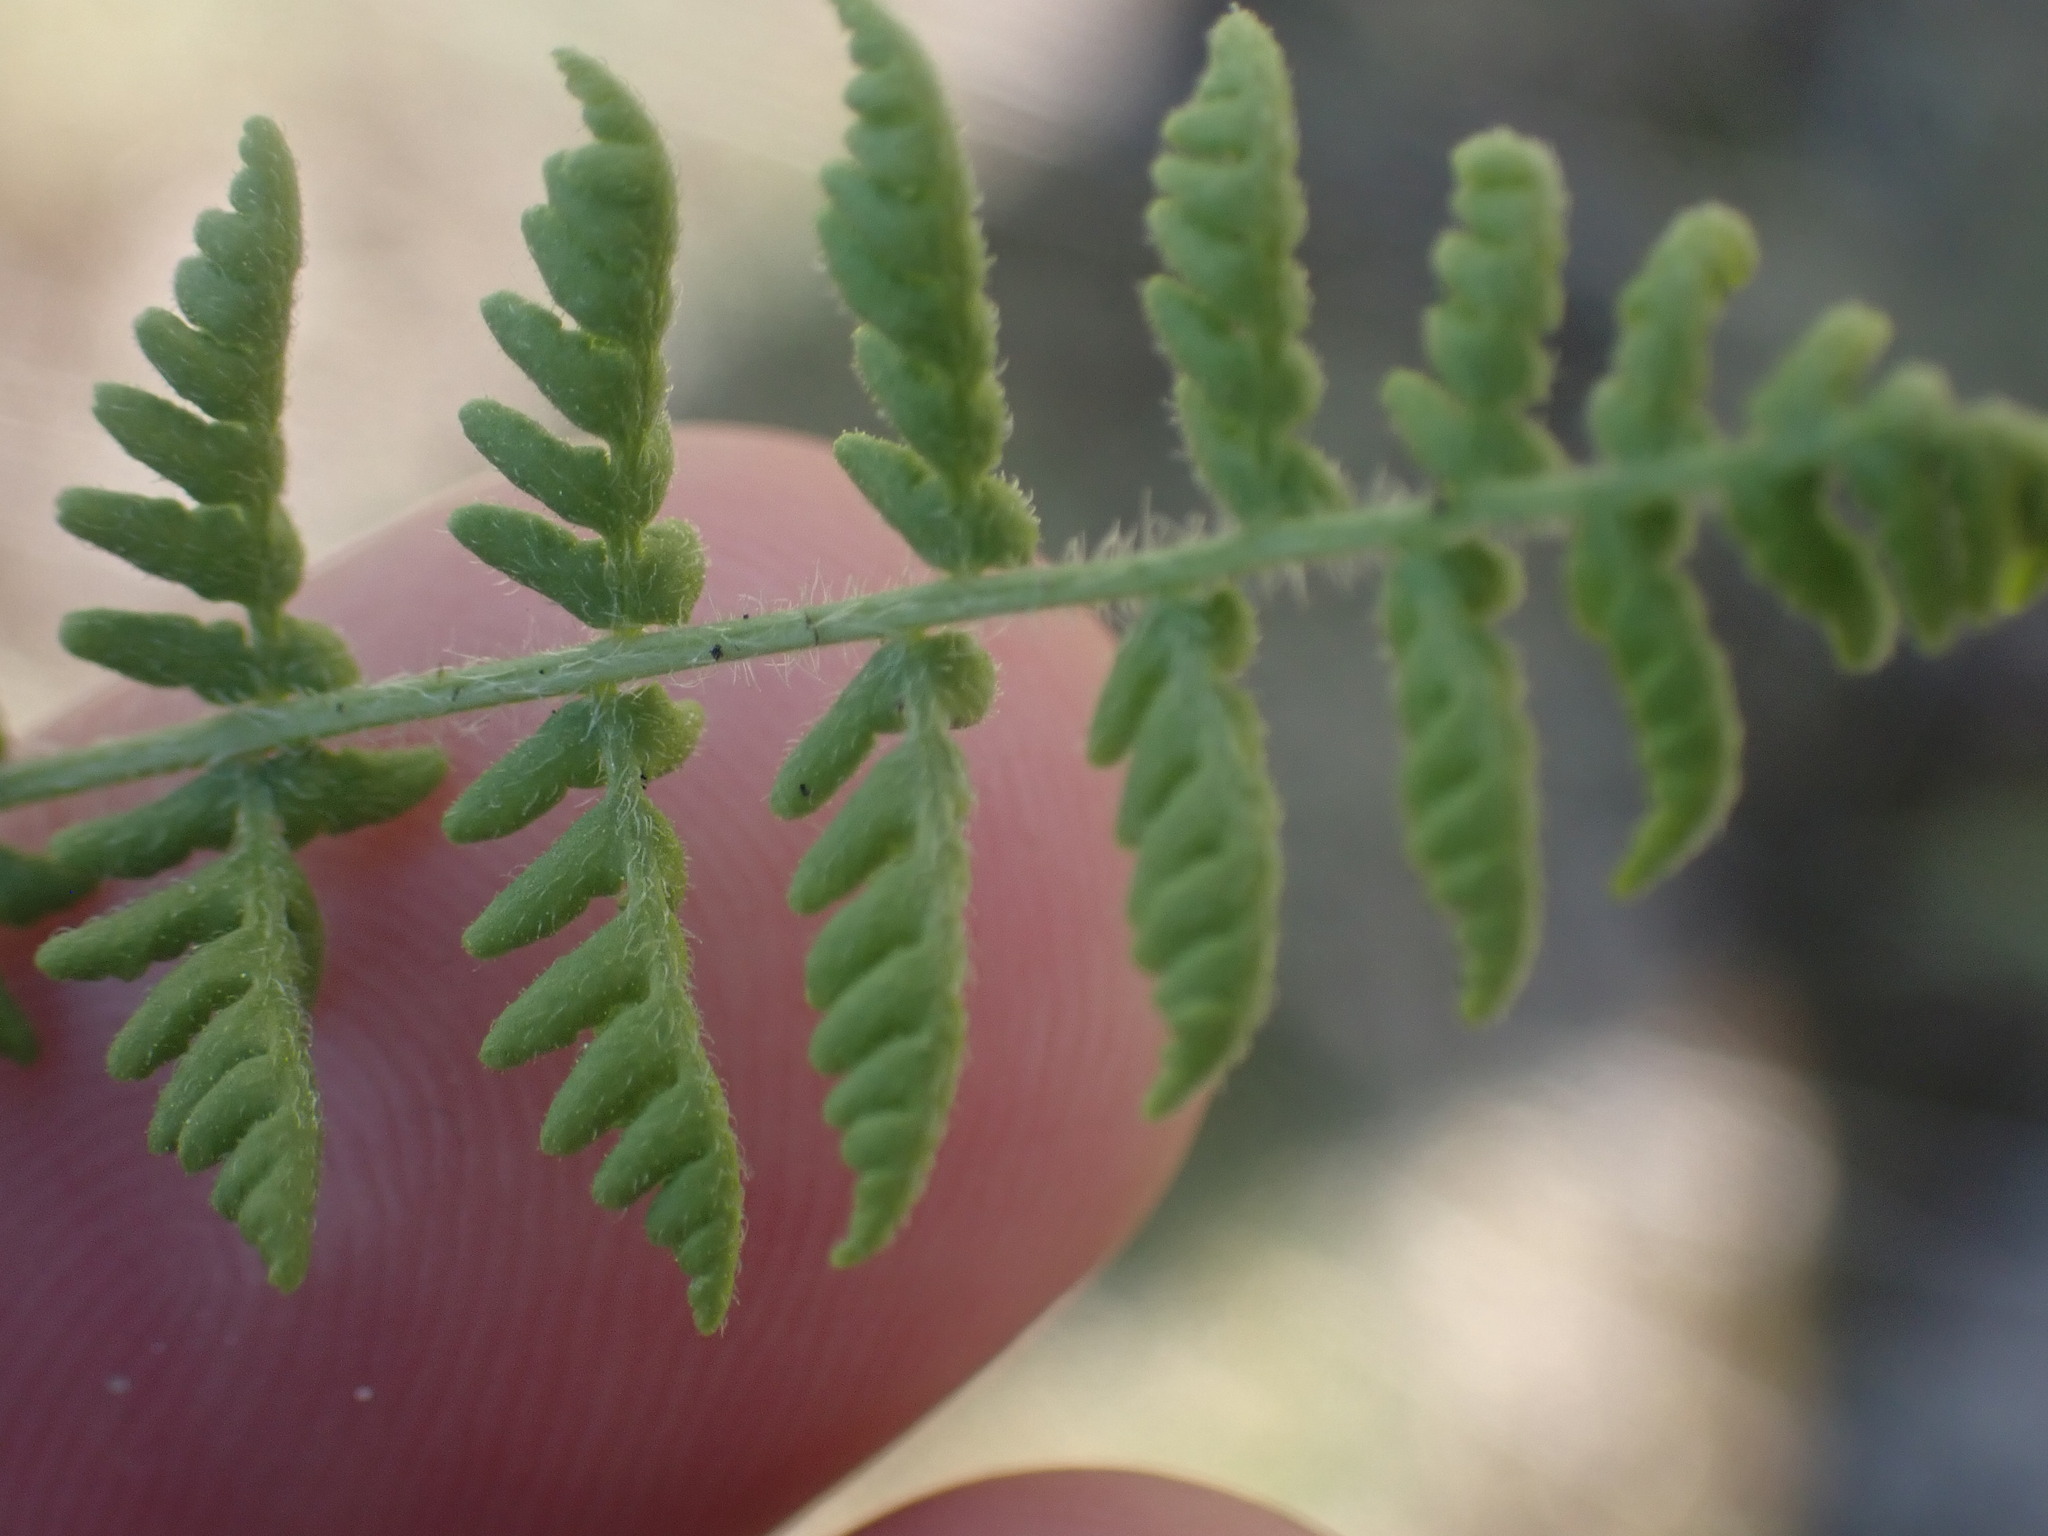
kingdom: Plantae
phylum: Tracheophyta
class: Polypodiopsida
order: Polypodiales
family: Woodsiaceae
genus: Physematium
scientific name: Physematium scopulinum
